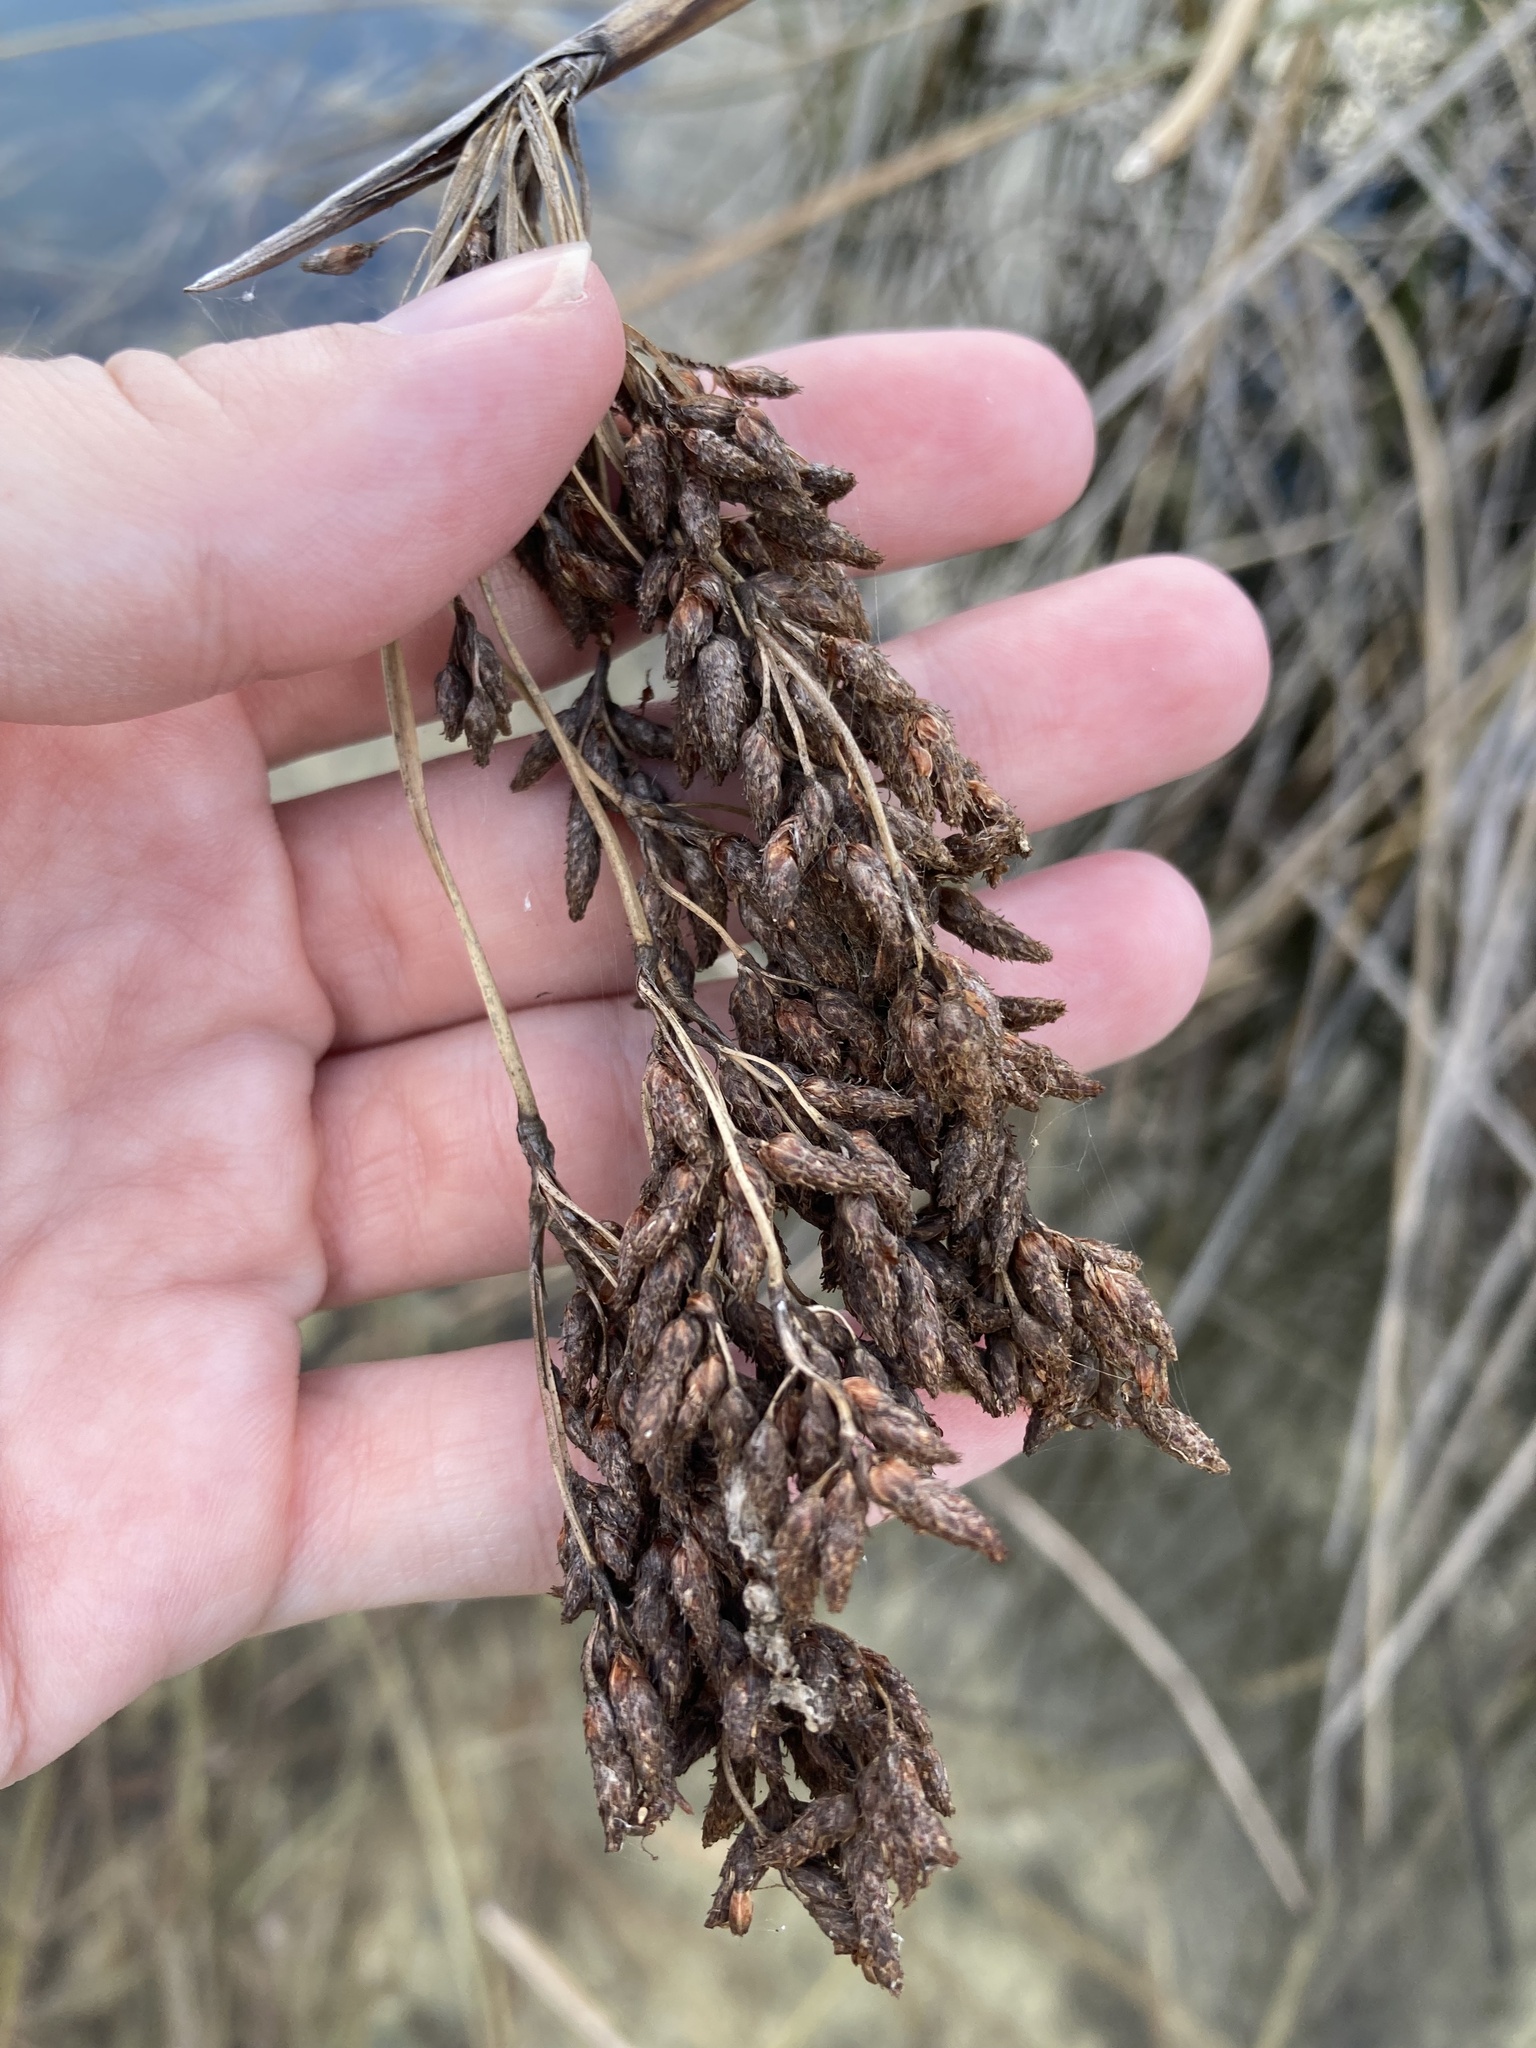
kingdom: Plantae
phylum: Tracheophyta
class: Liliopsida
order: Poales
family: Cyperaceae
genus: Schoenoplectus
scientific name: Schoenoplectus californicus
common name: California bulrush
